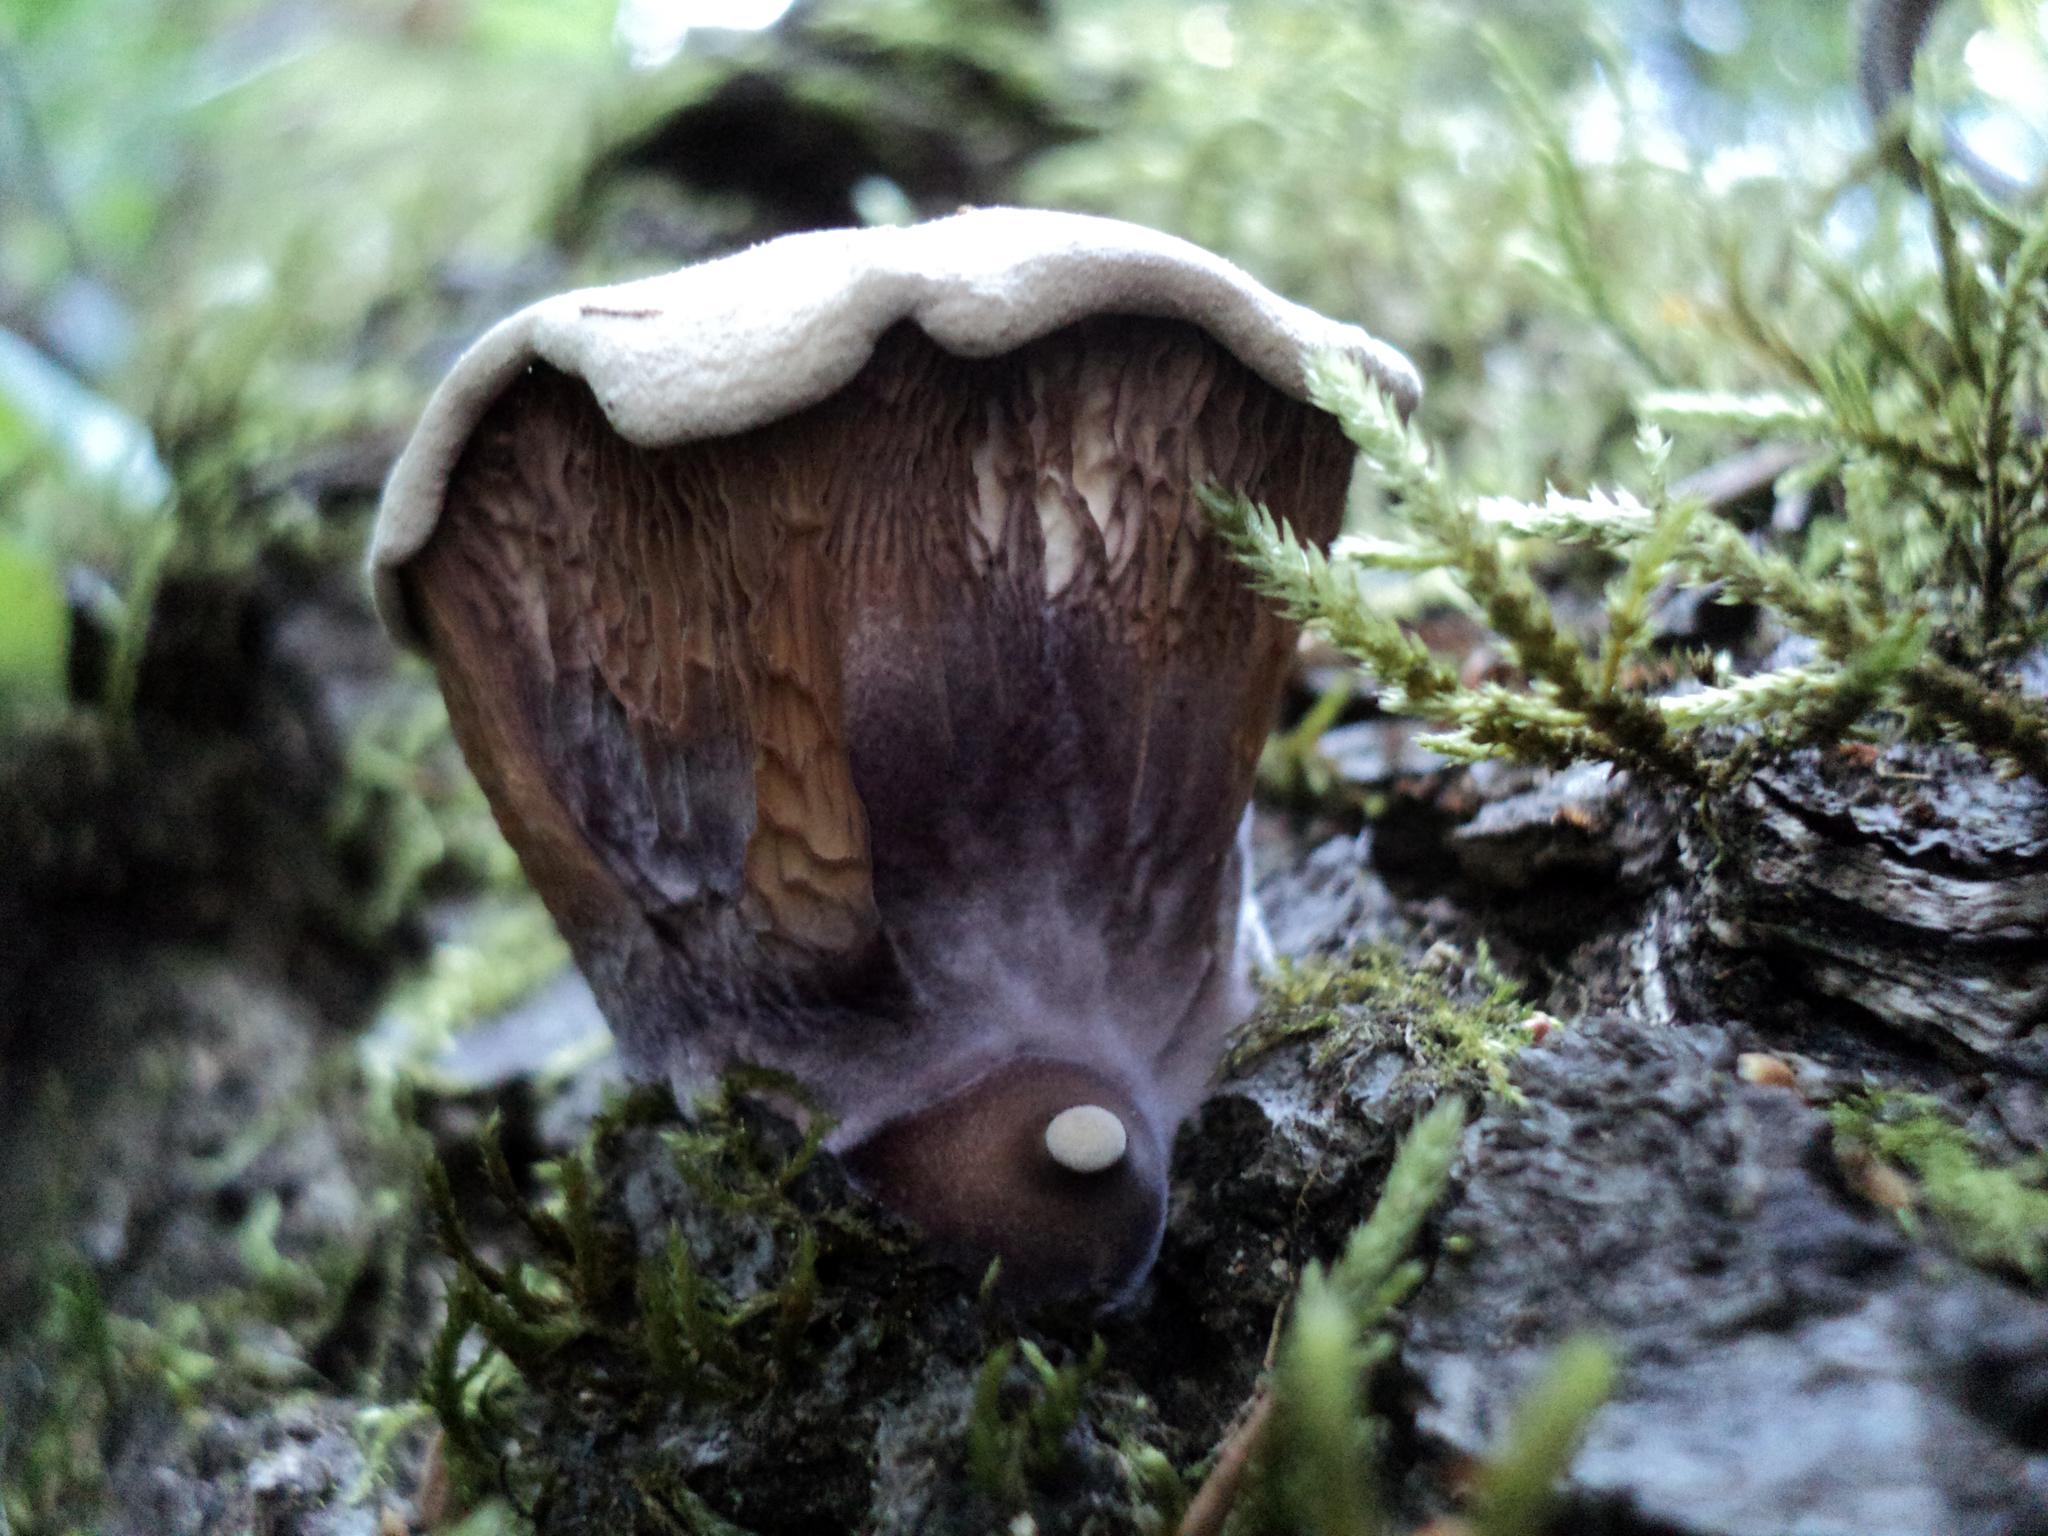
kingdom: Fungi
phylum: Basidiomycota
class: Agaricomycetes
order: Polyporales
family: Panaceae
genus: Panus
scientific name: Panus conchatus
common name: Lilac oysterling
